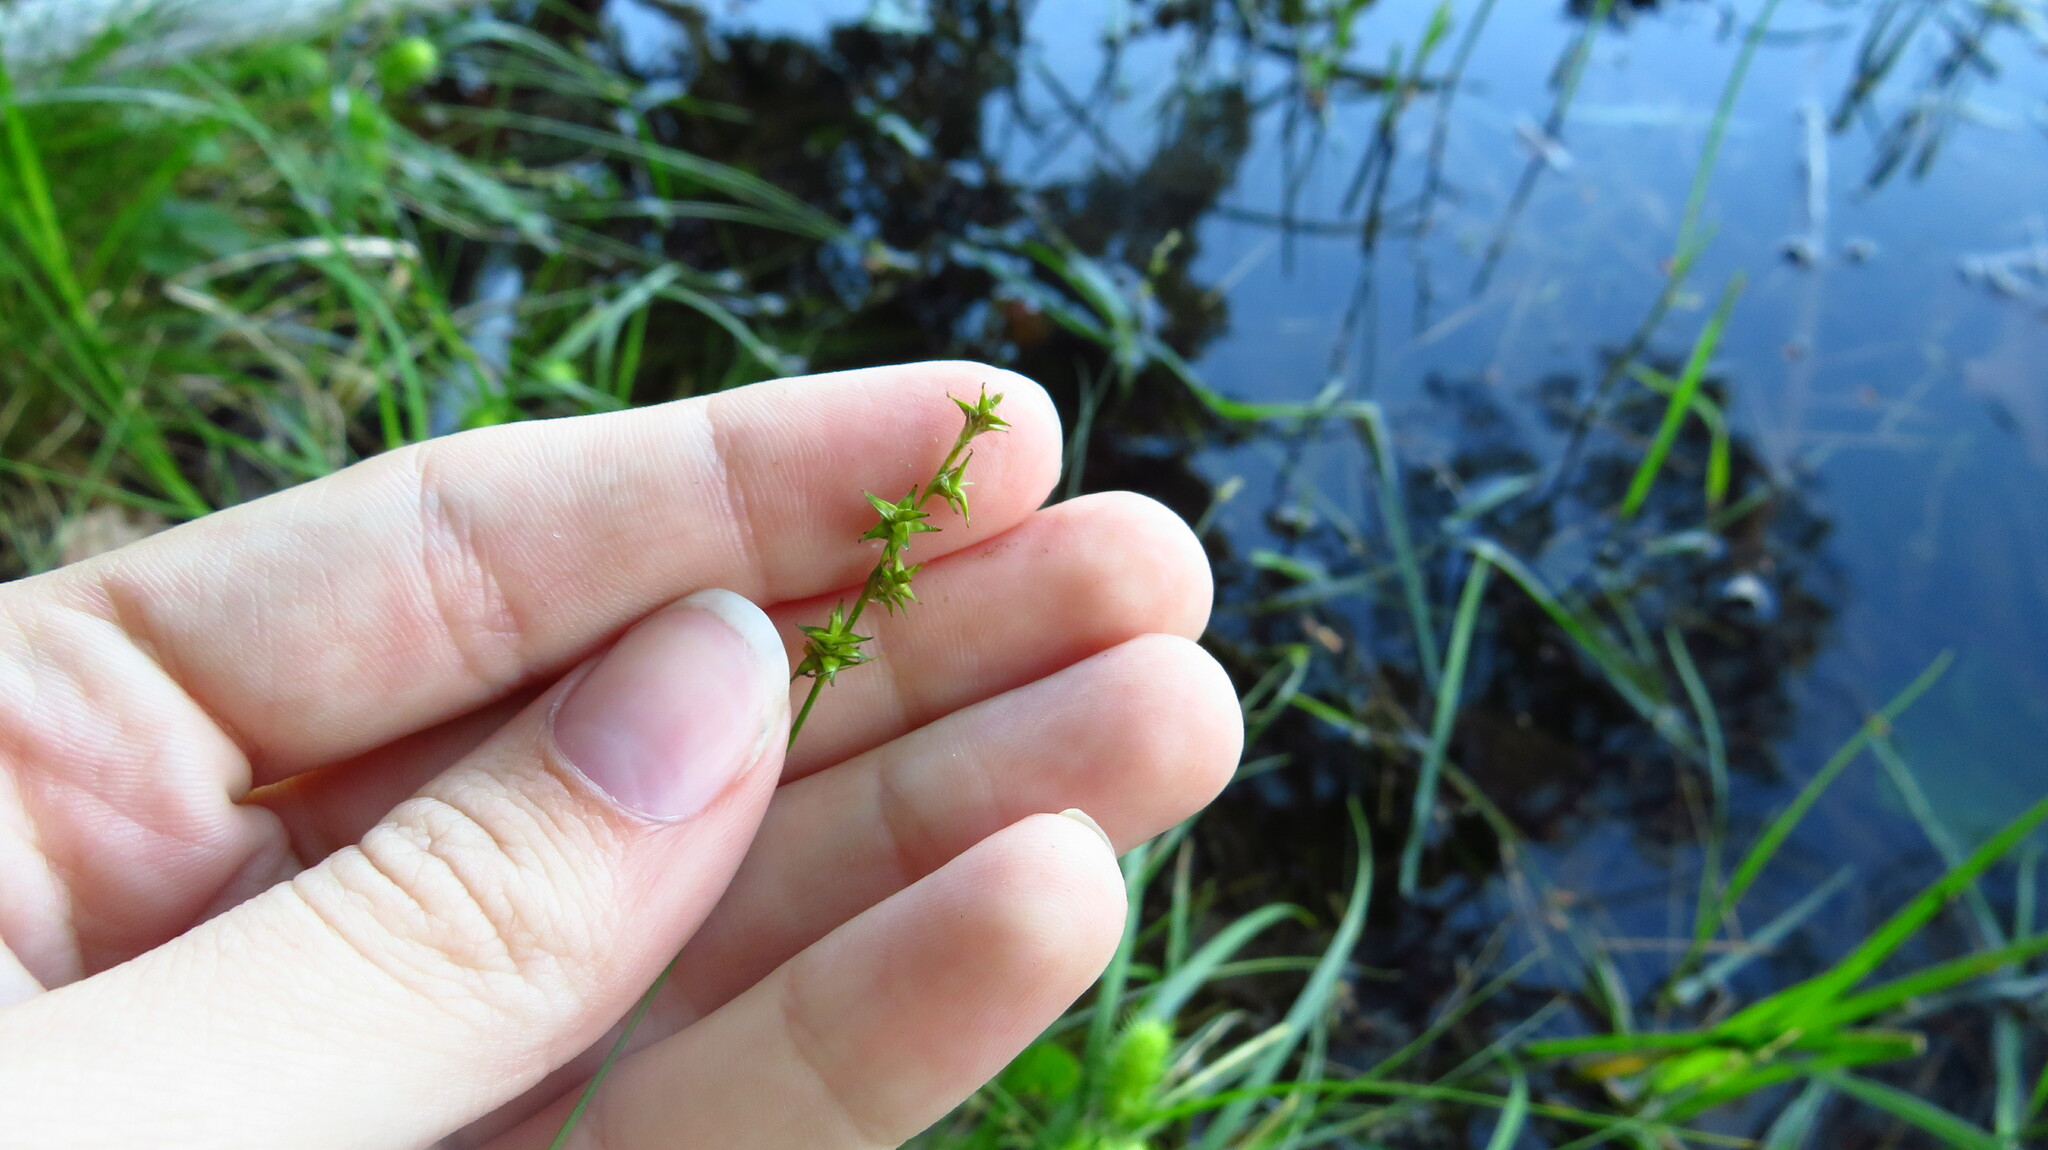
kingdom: Plantae
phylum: Tracheophyta
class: Liliopsida
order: Poales
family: Cyperaceae
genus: Carex
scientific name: Carex echinata
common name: Star sedge
